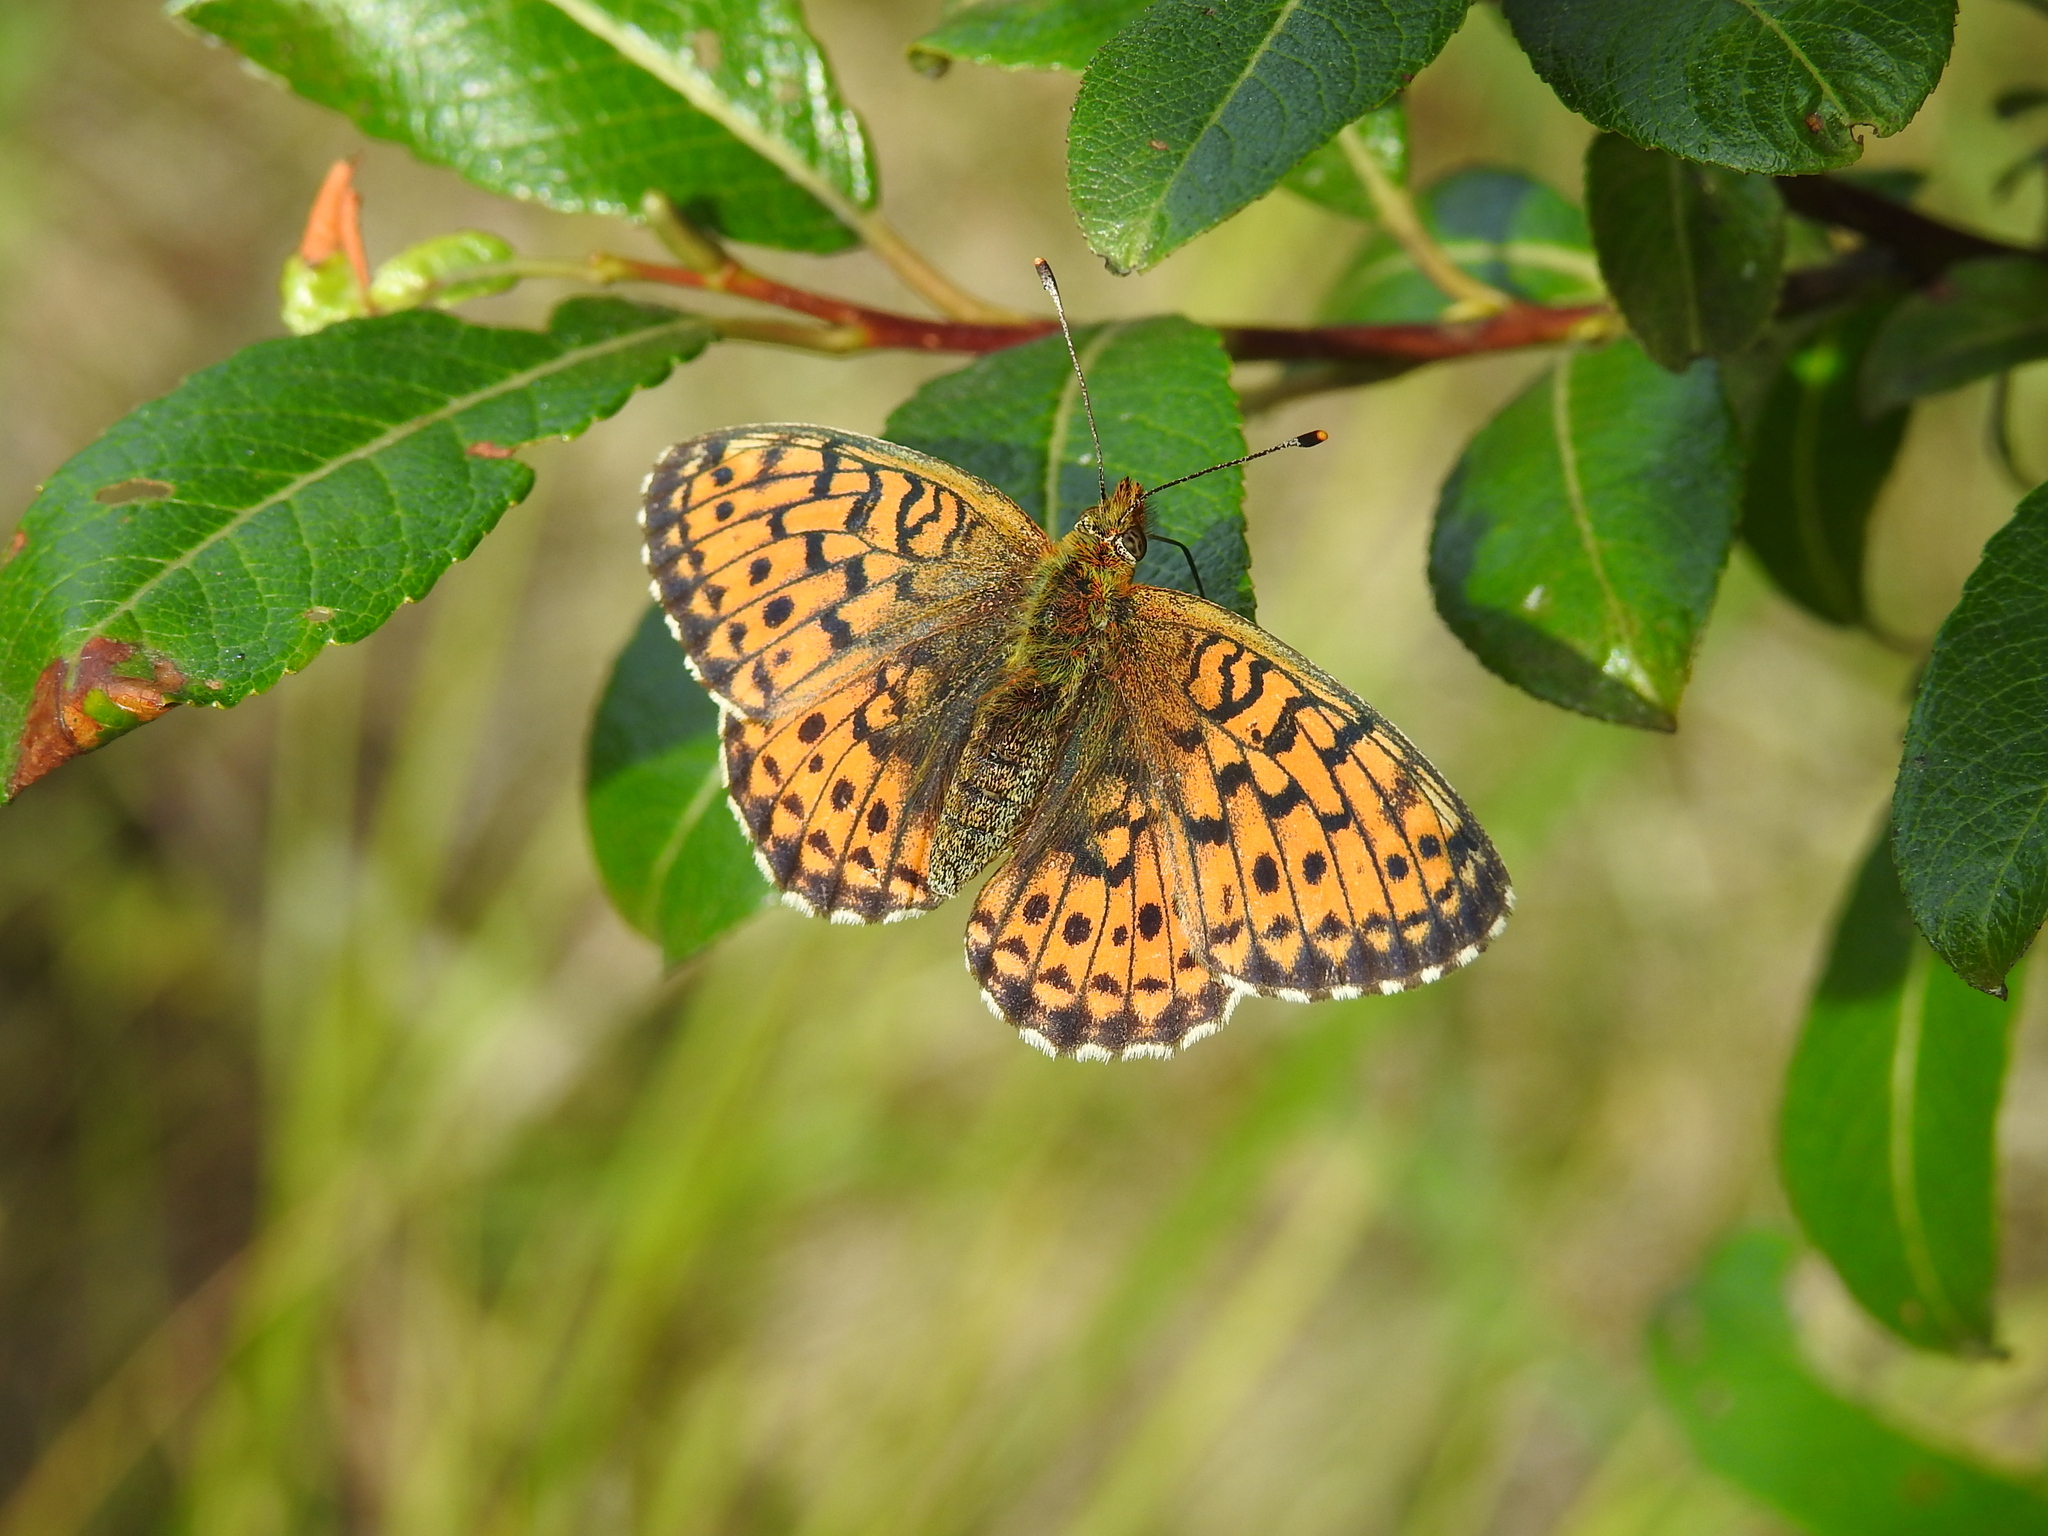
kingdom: Animalia
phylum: Arthropoda
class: Insecta
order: Lepidoptera
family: Nymphalidae
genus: Brenthis
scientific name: Brenthis ino
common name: Lesser marbled fritillary
